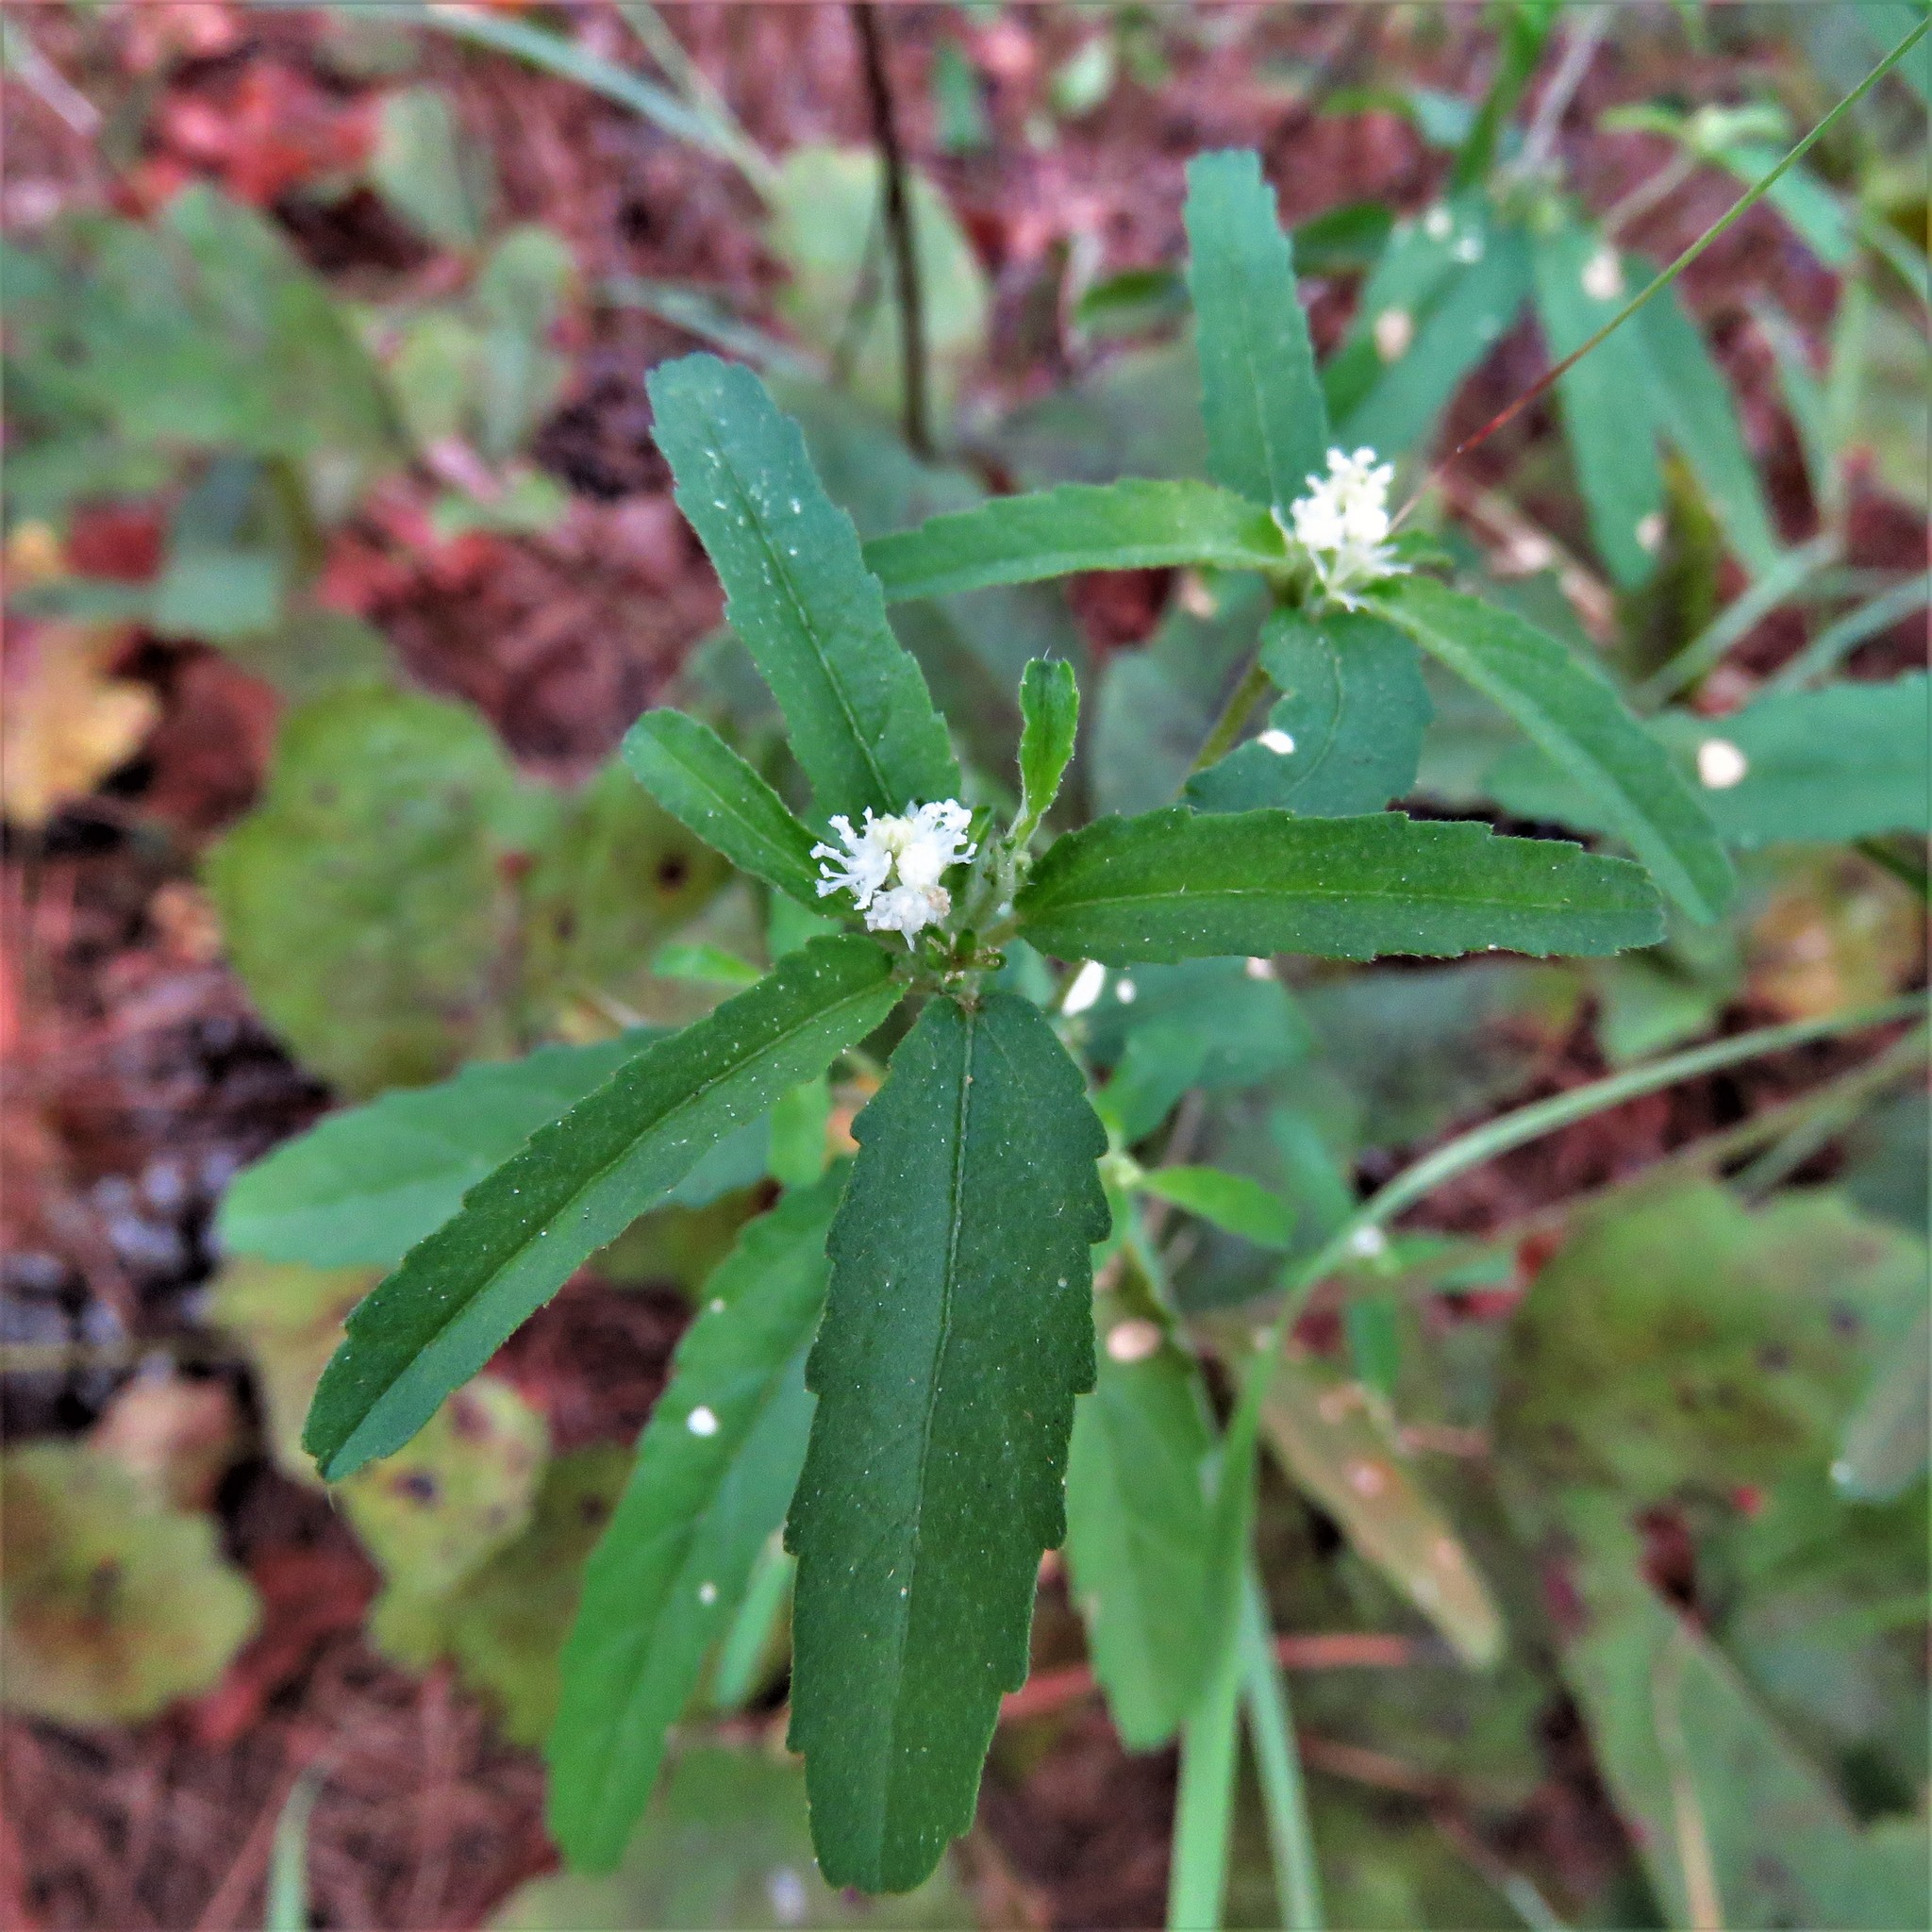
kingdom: Plantae
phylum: Tracheophyta
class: Magnoliopsida
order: Malpighiales
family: Euphorbiaceae
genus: Croton
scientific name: Croton glandulosus
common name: Tropic croton
